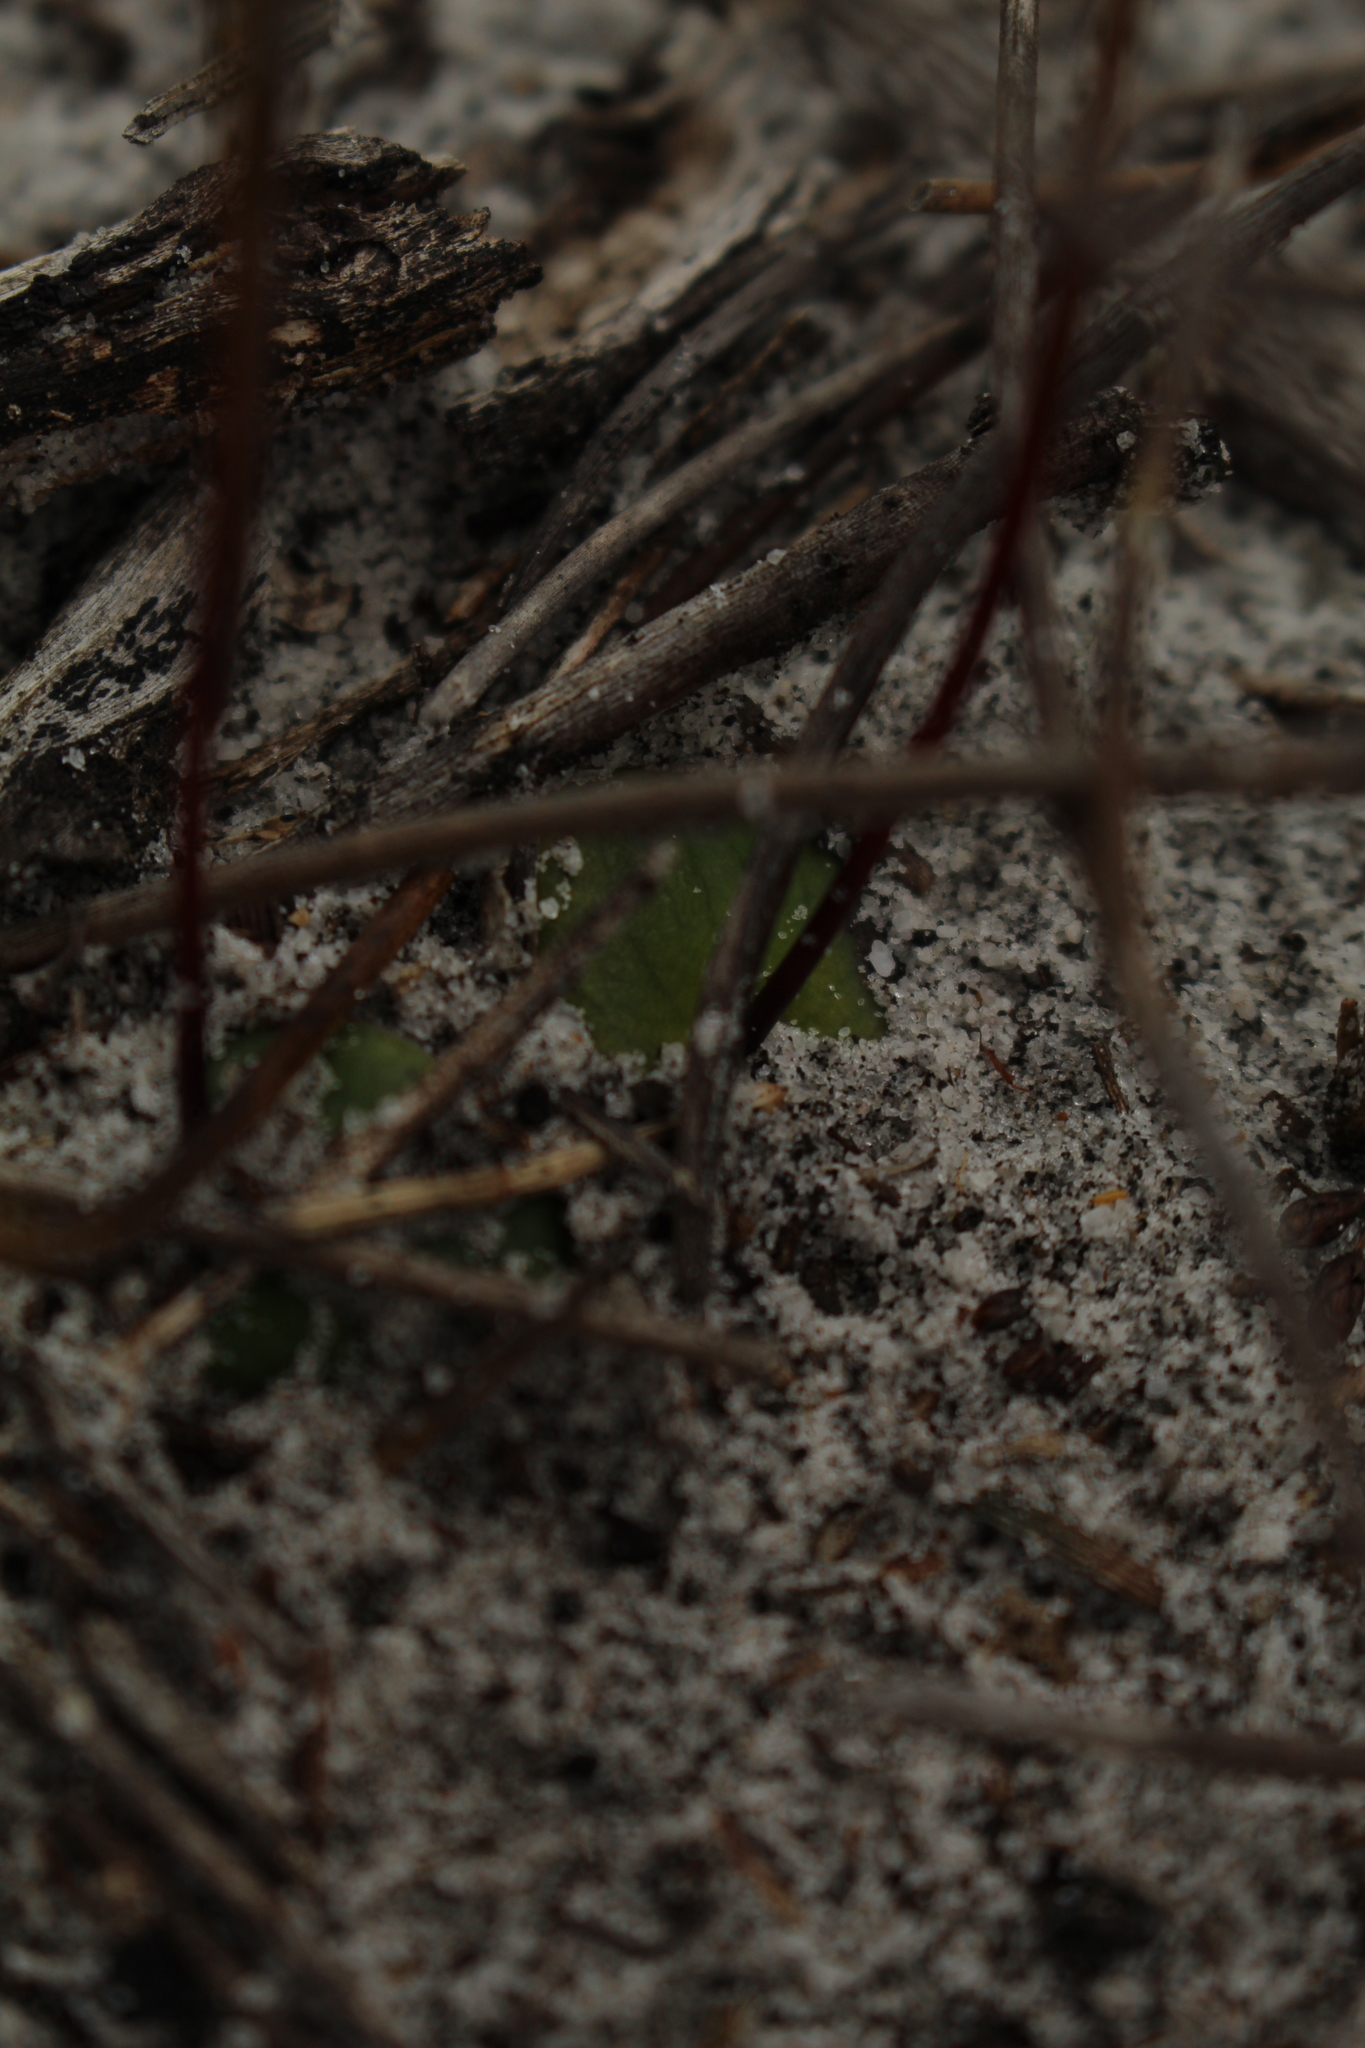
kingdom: Plantae
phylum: Tracheophyta
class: Liliopsida
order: Asparagales
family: Orchidaceae
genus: Drakaea
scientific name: Drakaea livida
